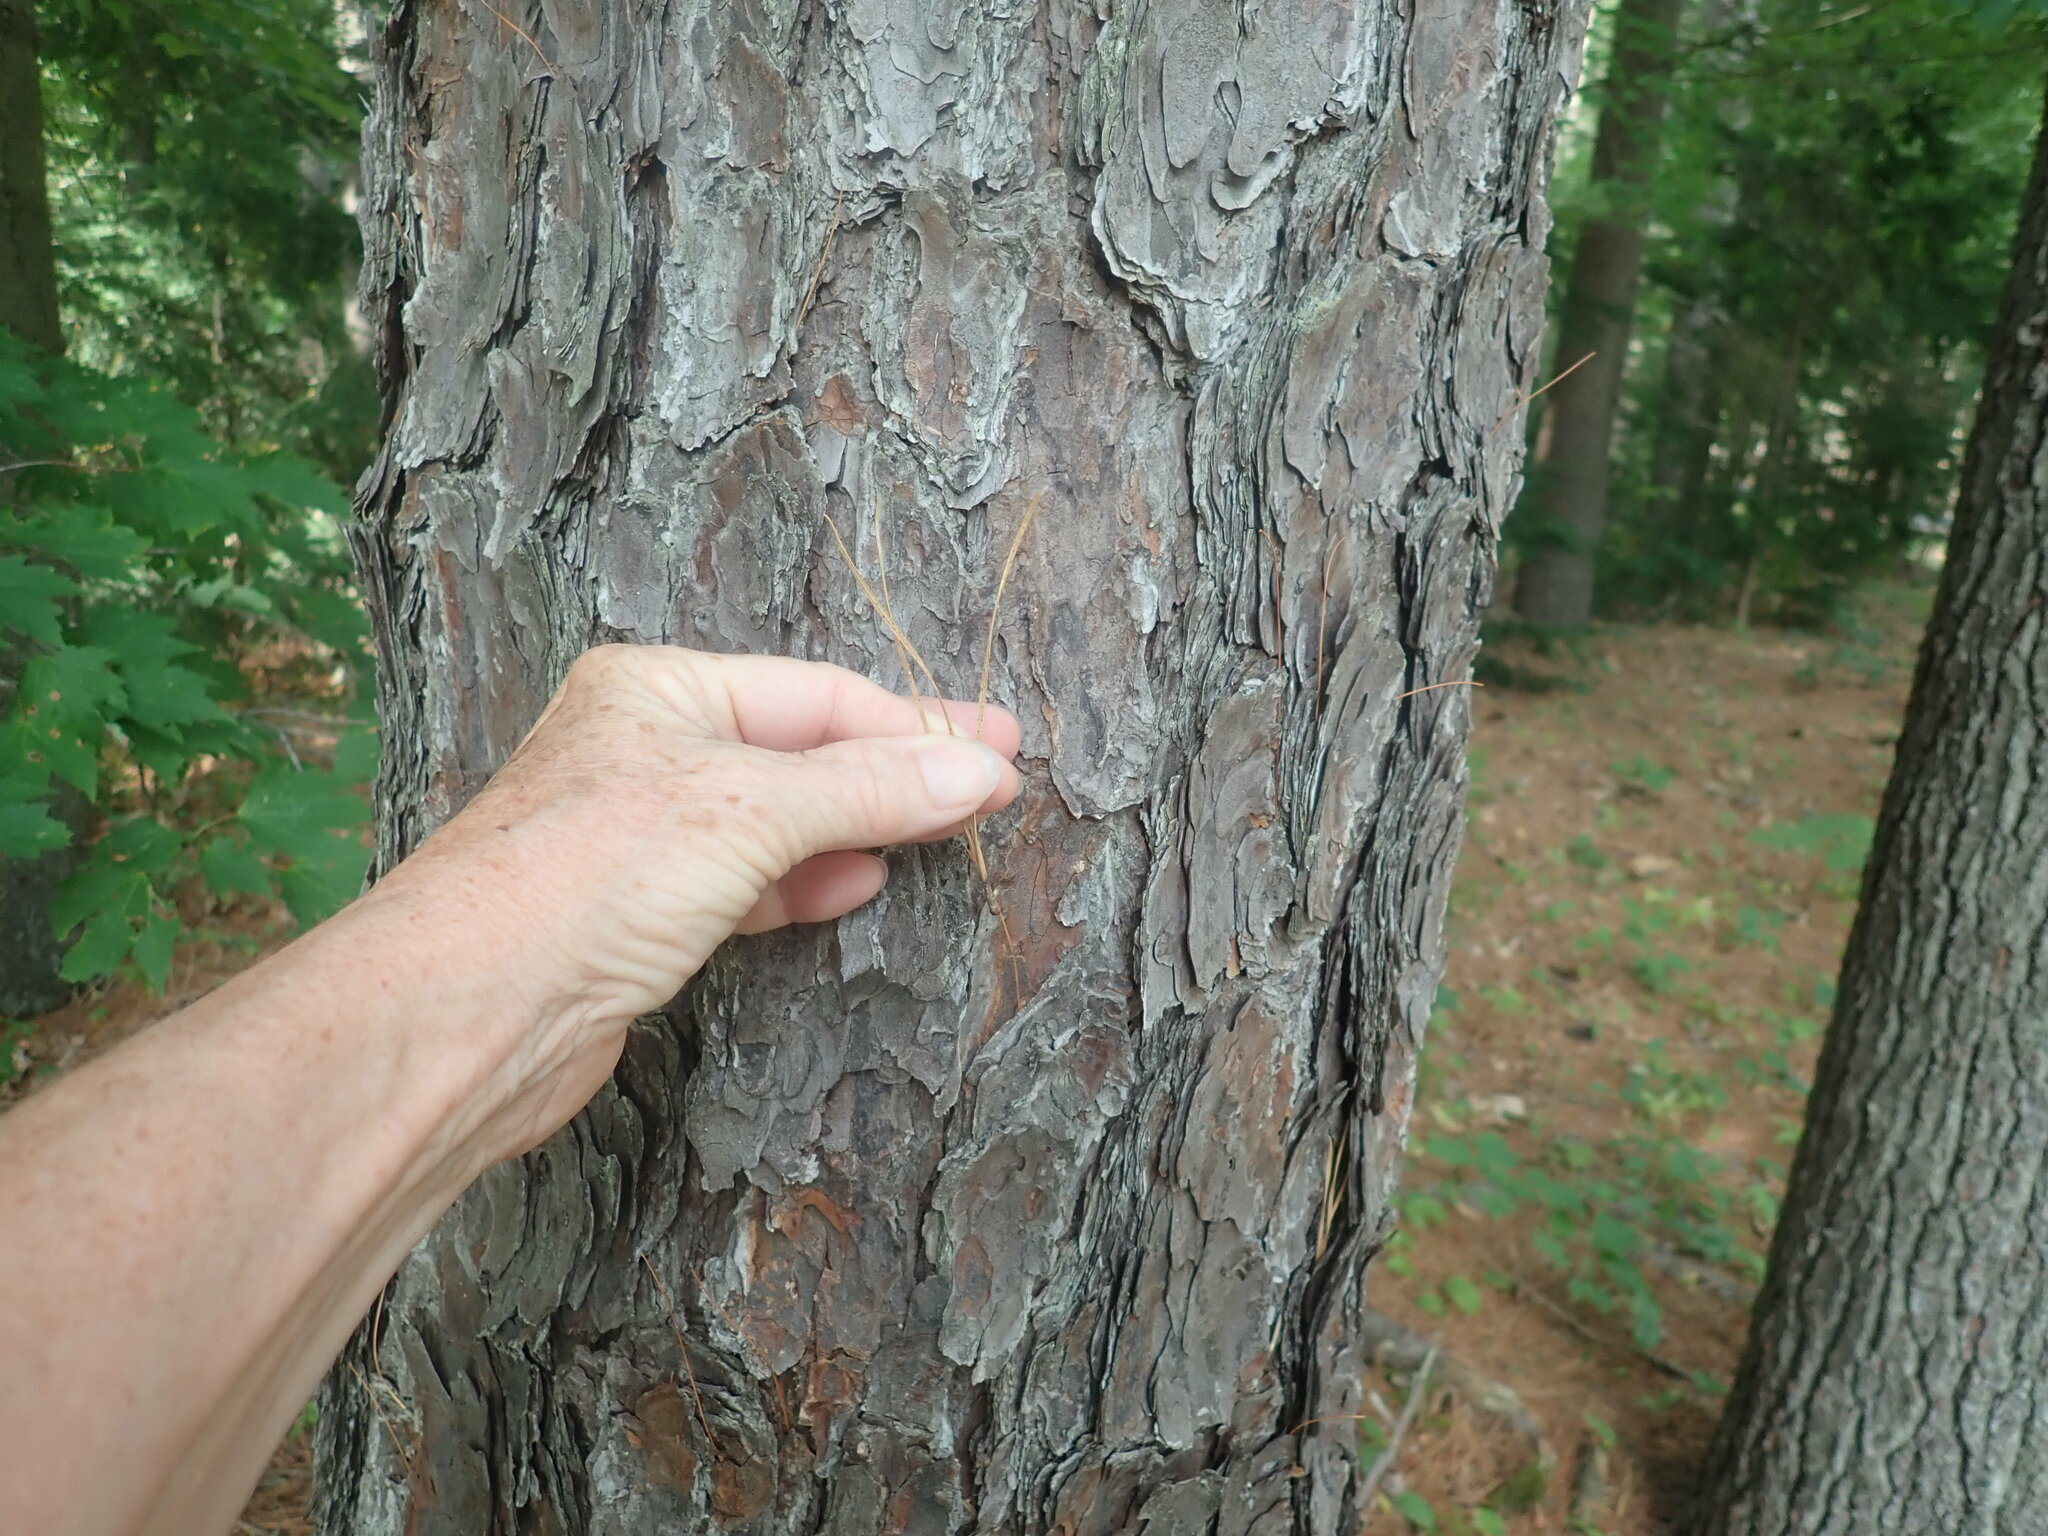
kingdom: Plantae
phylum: Tracheophyta
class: Pinopsida
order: Pinales
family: Pinaceae
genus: Pinus
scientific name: Pinus rigida
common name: Pitch pine
